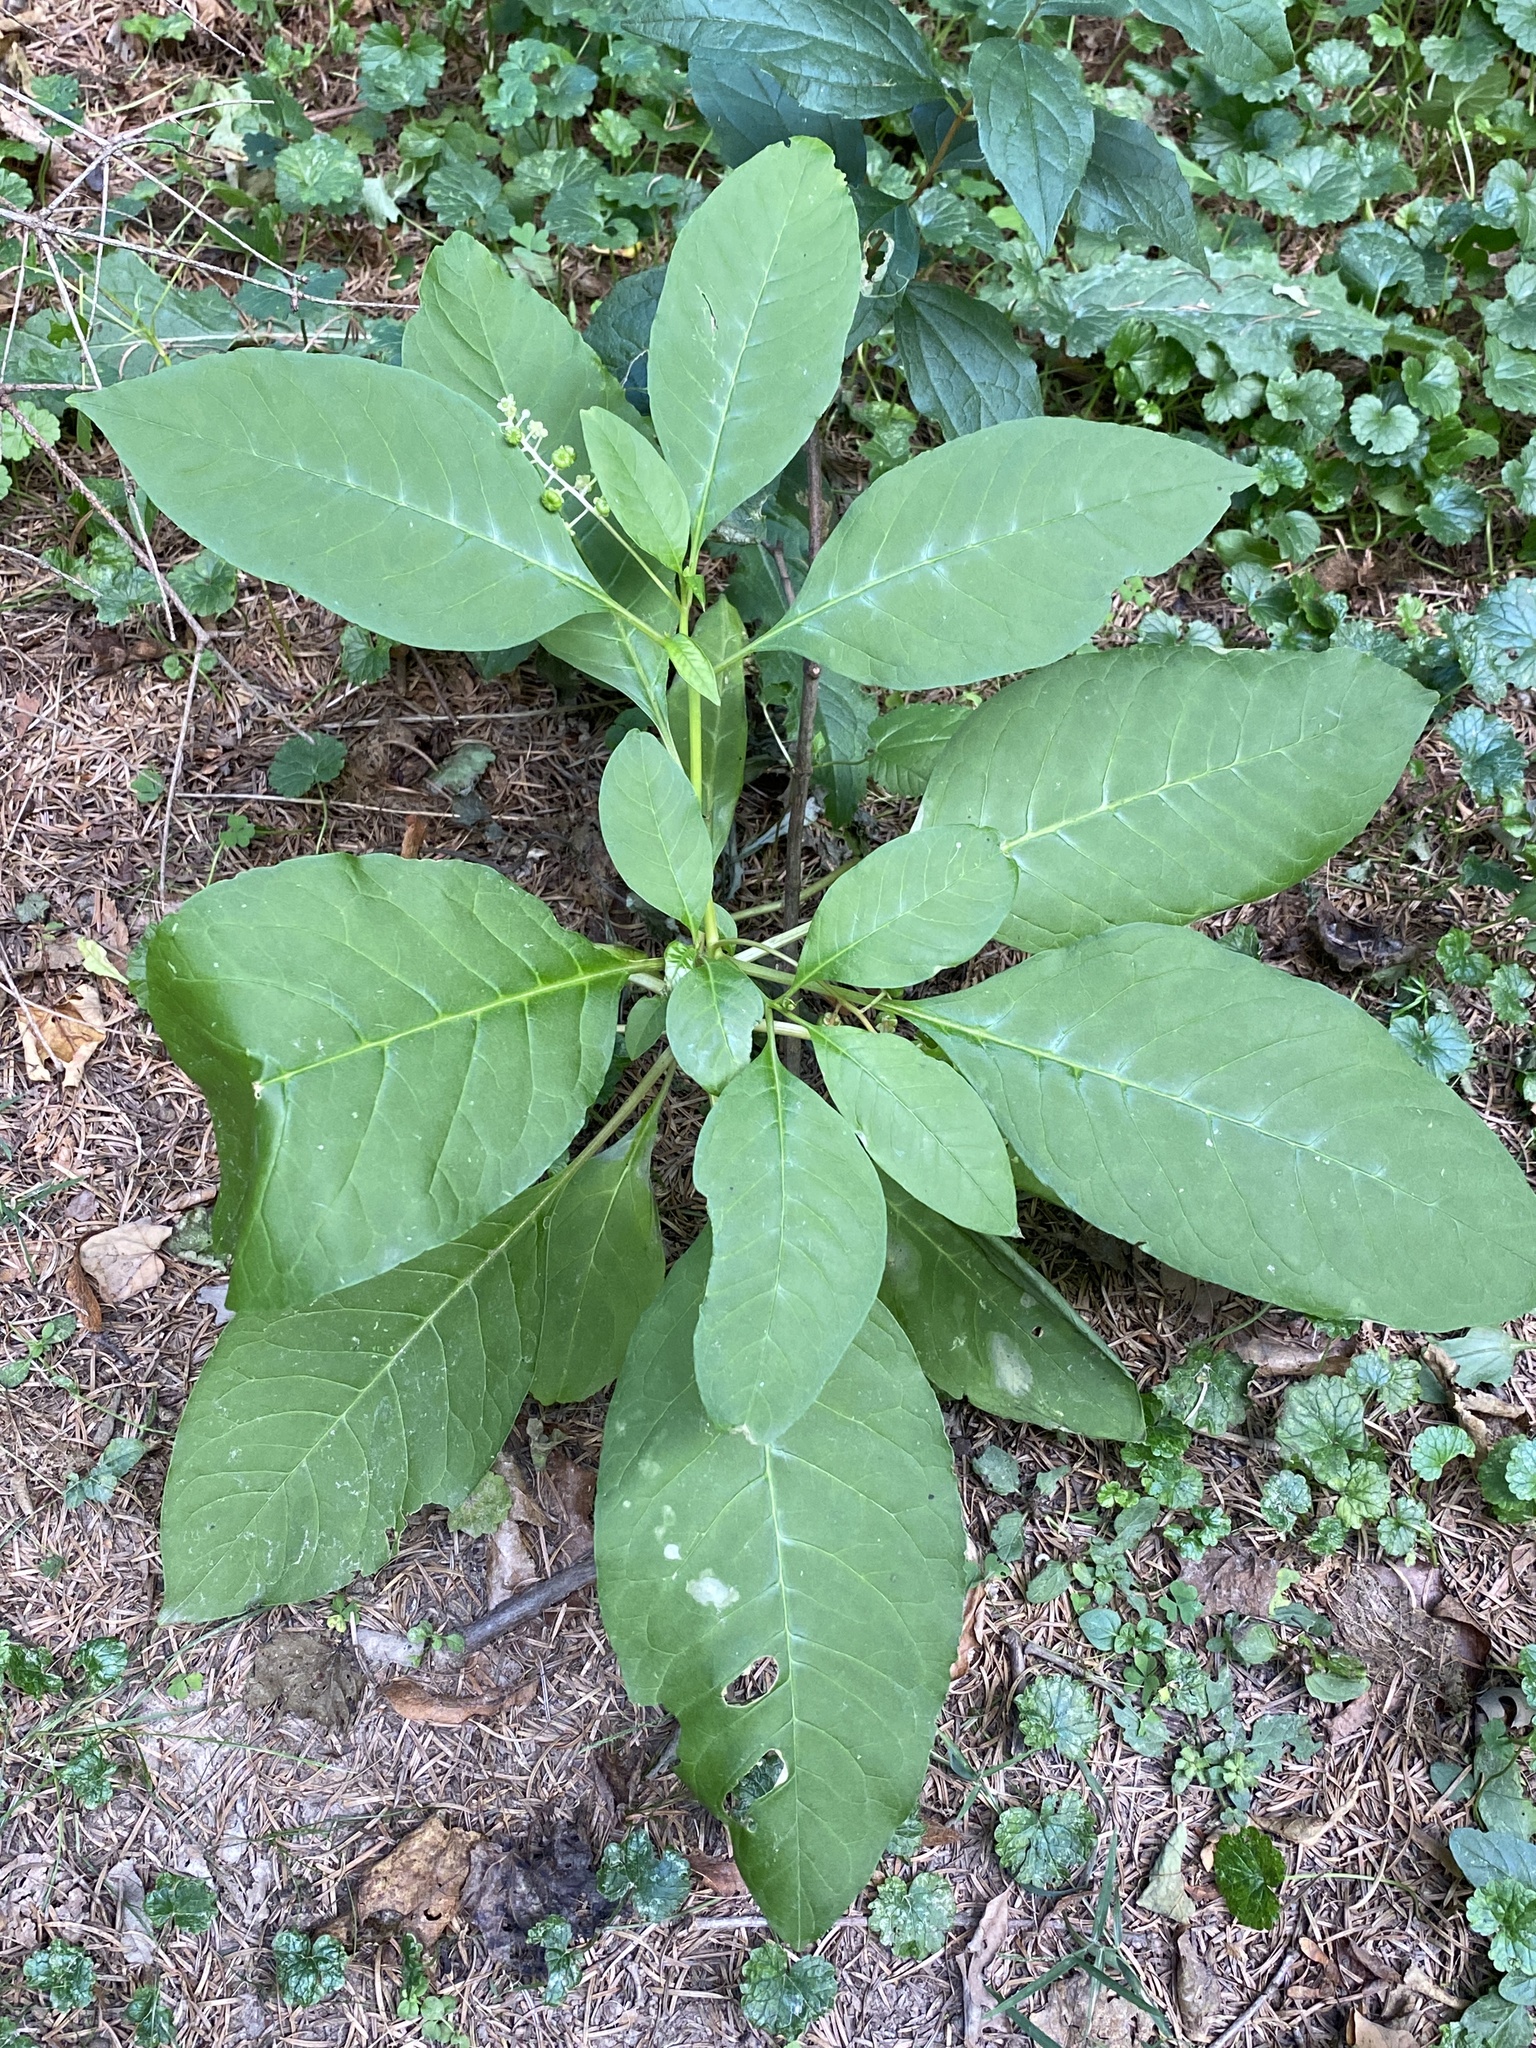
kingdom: Plantae
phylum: Tracheophyta
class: Magnoliopsida
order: Caryophyllales
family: Phytolaccaceae
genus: Phytolacca
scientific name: Phytolacca americana
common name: American pokeweed
